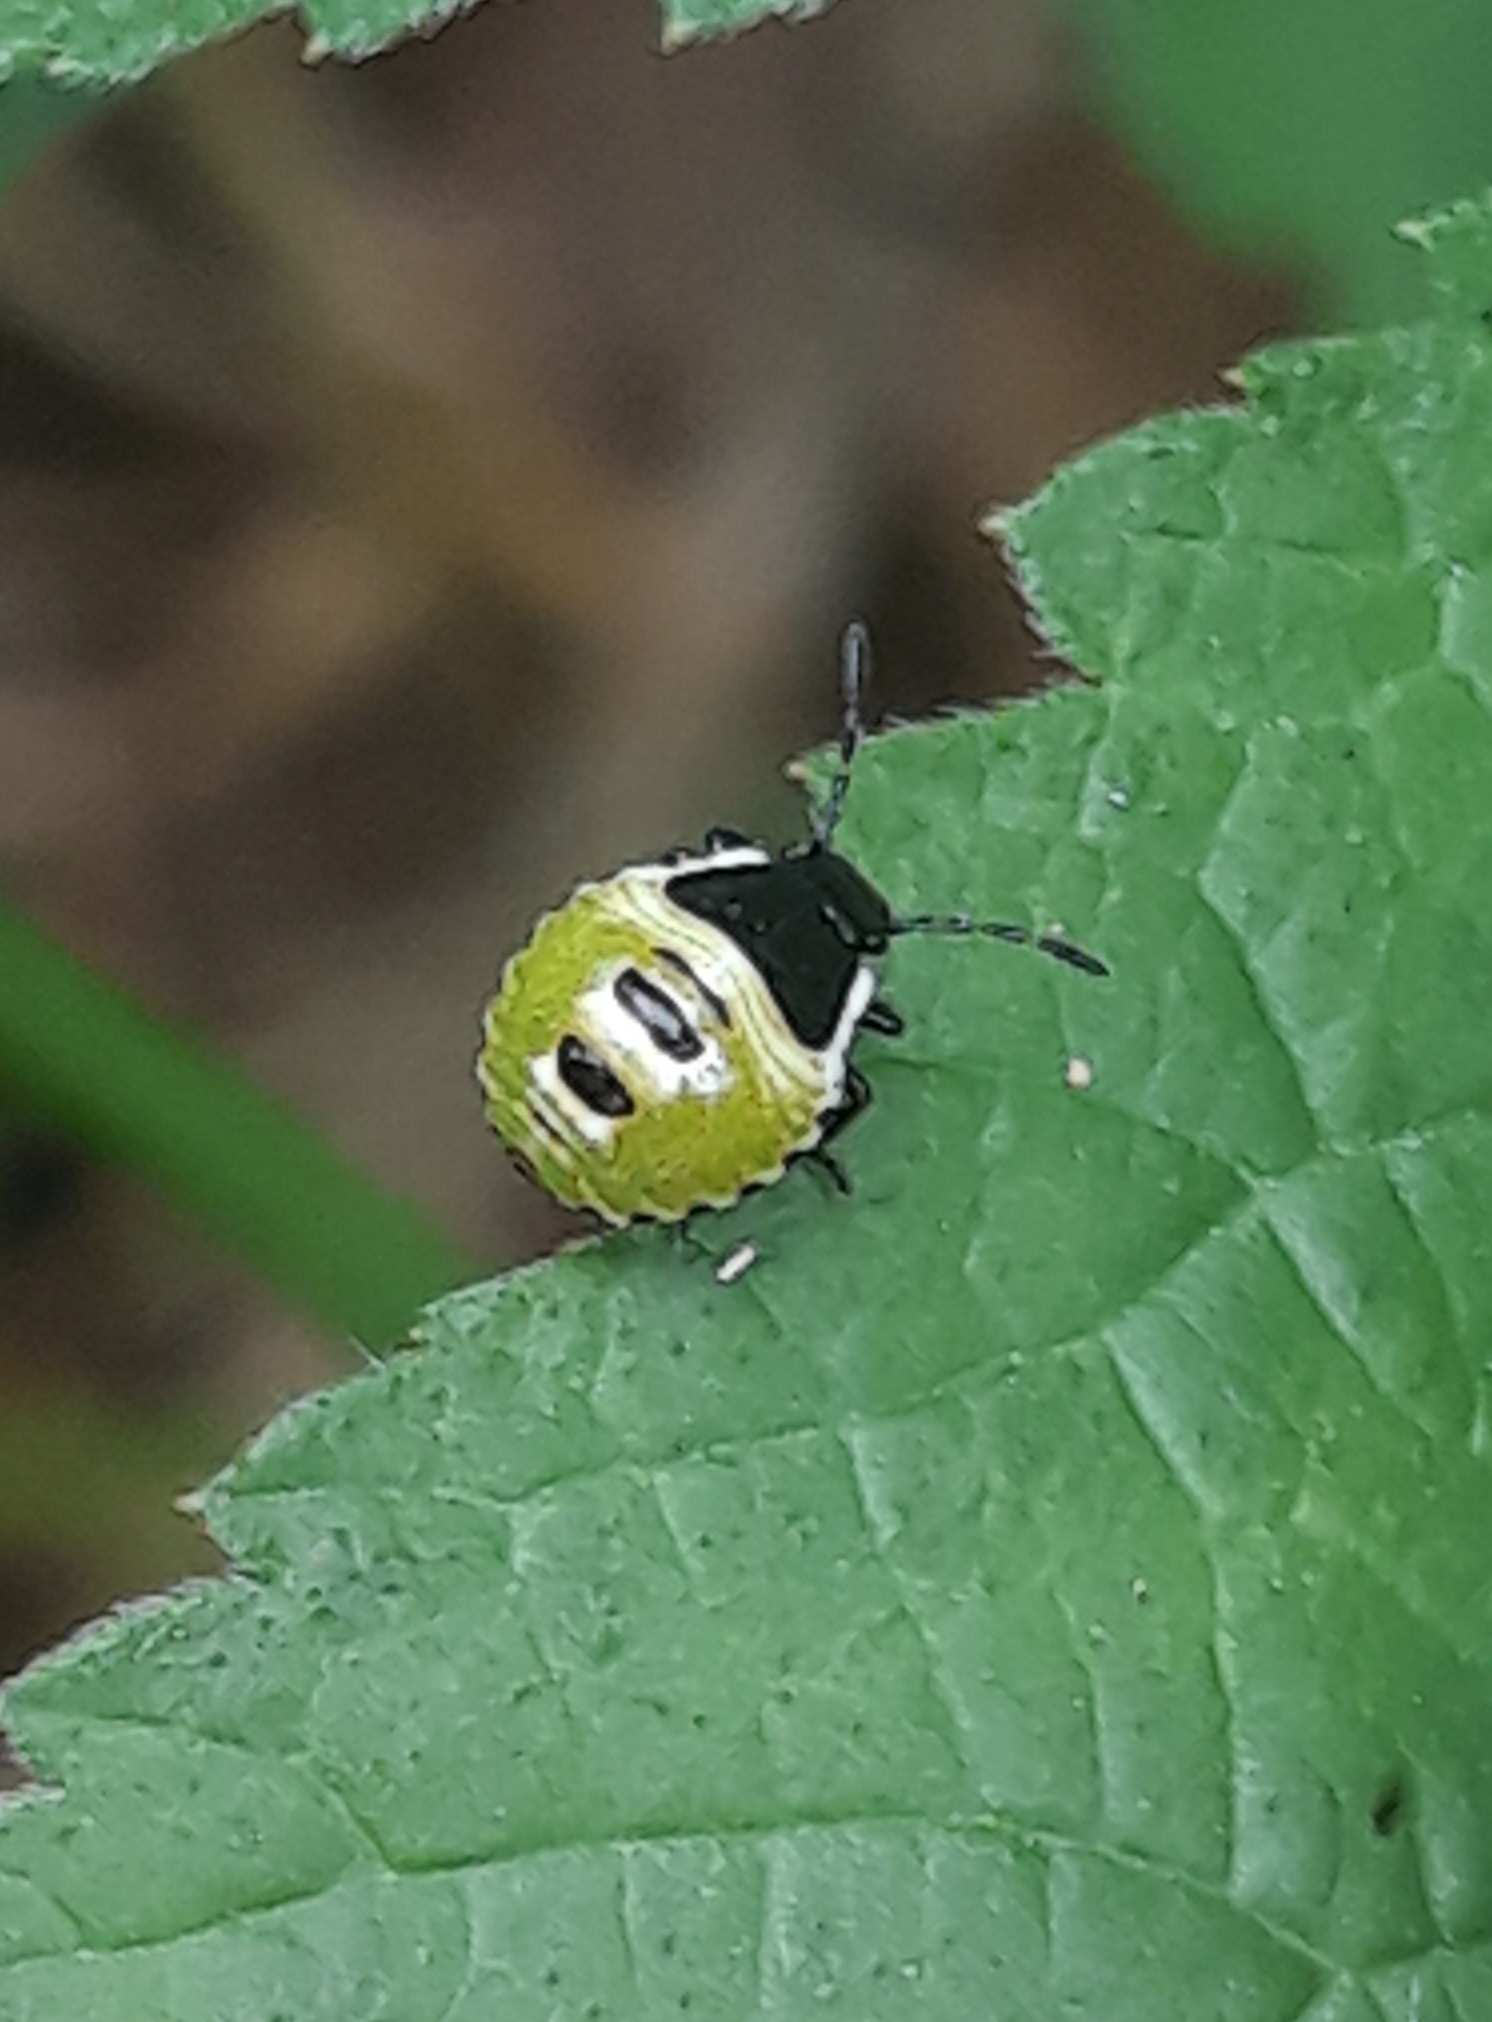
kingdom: Animalia
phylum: Arthropoda
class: Insecta
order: Hemiptera
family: Pentatomidae
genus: Palomena
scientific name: Palomena prasina
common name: Green shieldbug
